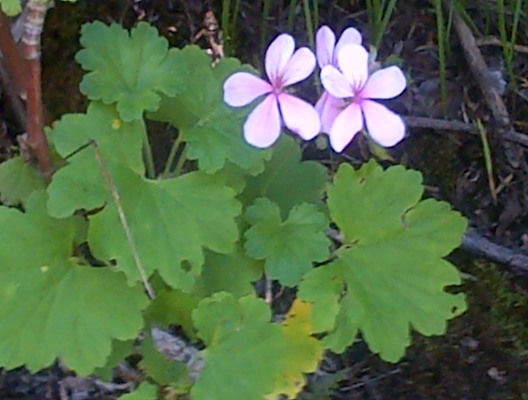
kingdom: Plantae
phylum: Tracheophyta
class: Magnoliopsida
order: Geraniales
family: Geraniaceae
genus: Pelargonium
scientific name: Pelargonium acraeum
